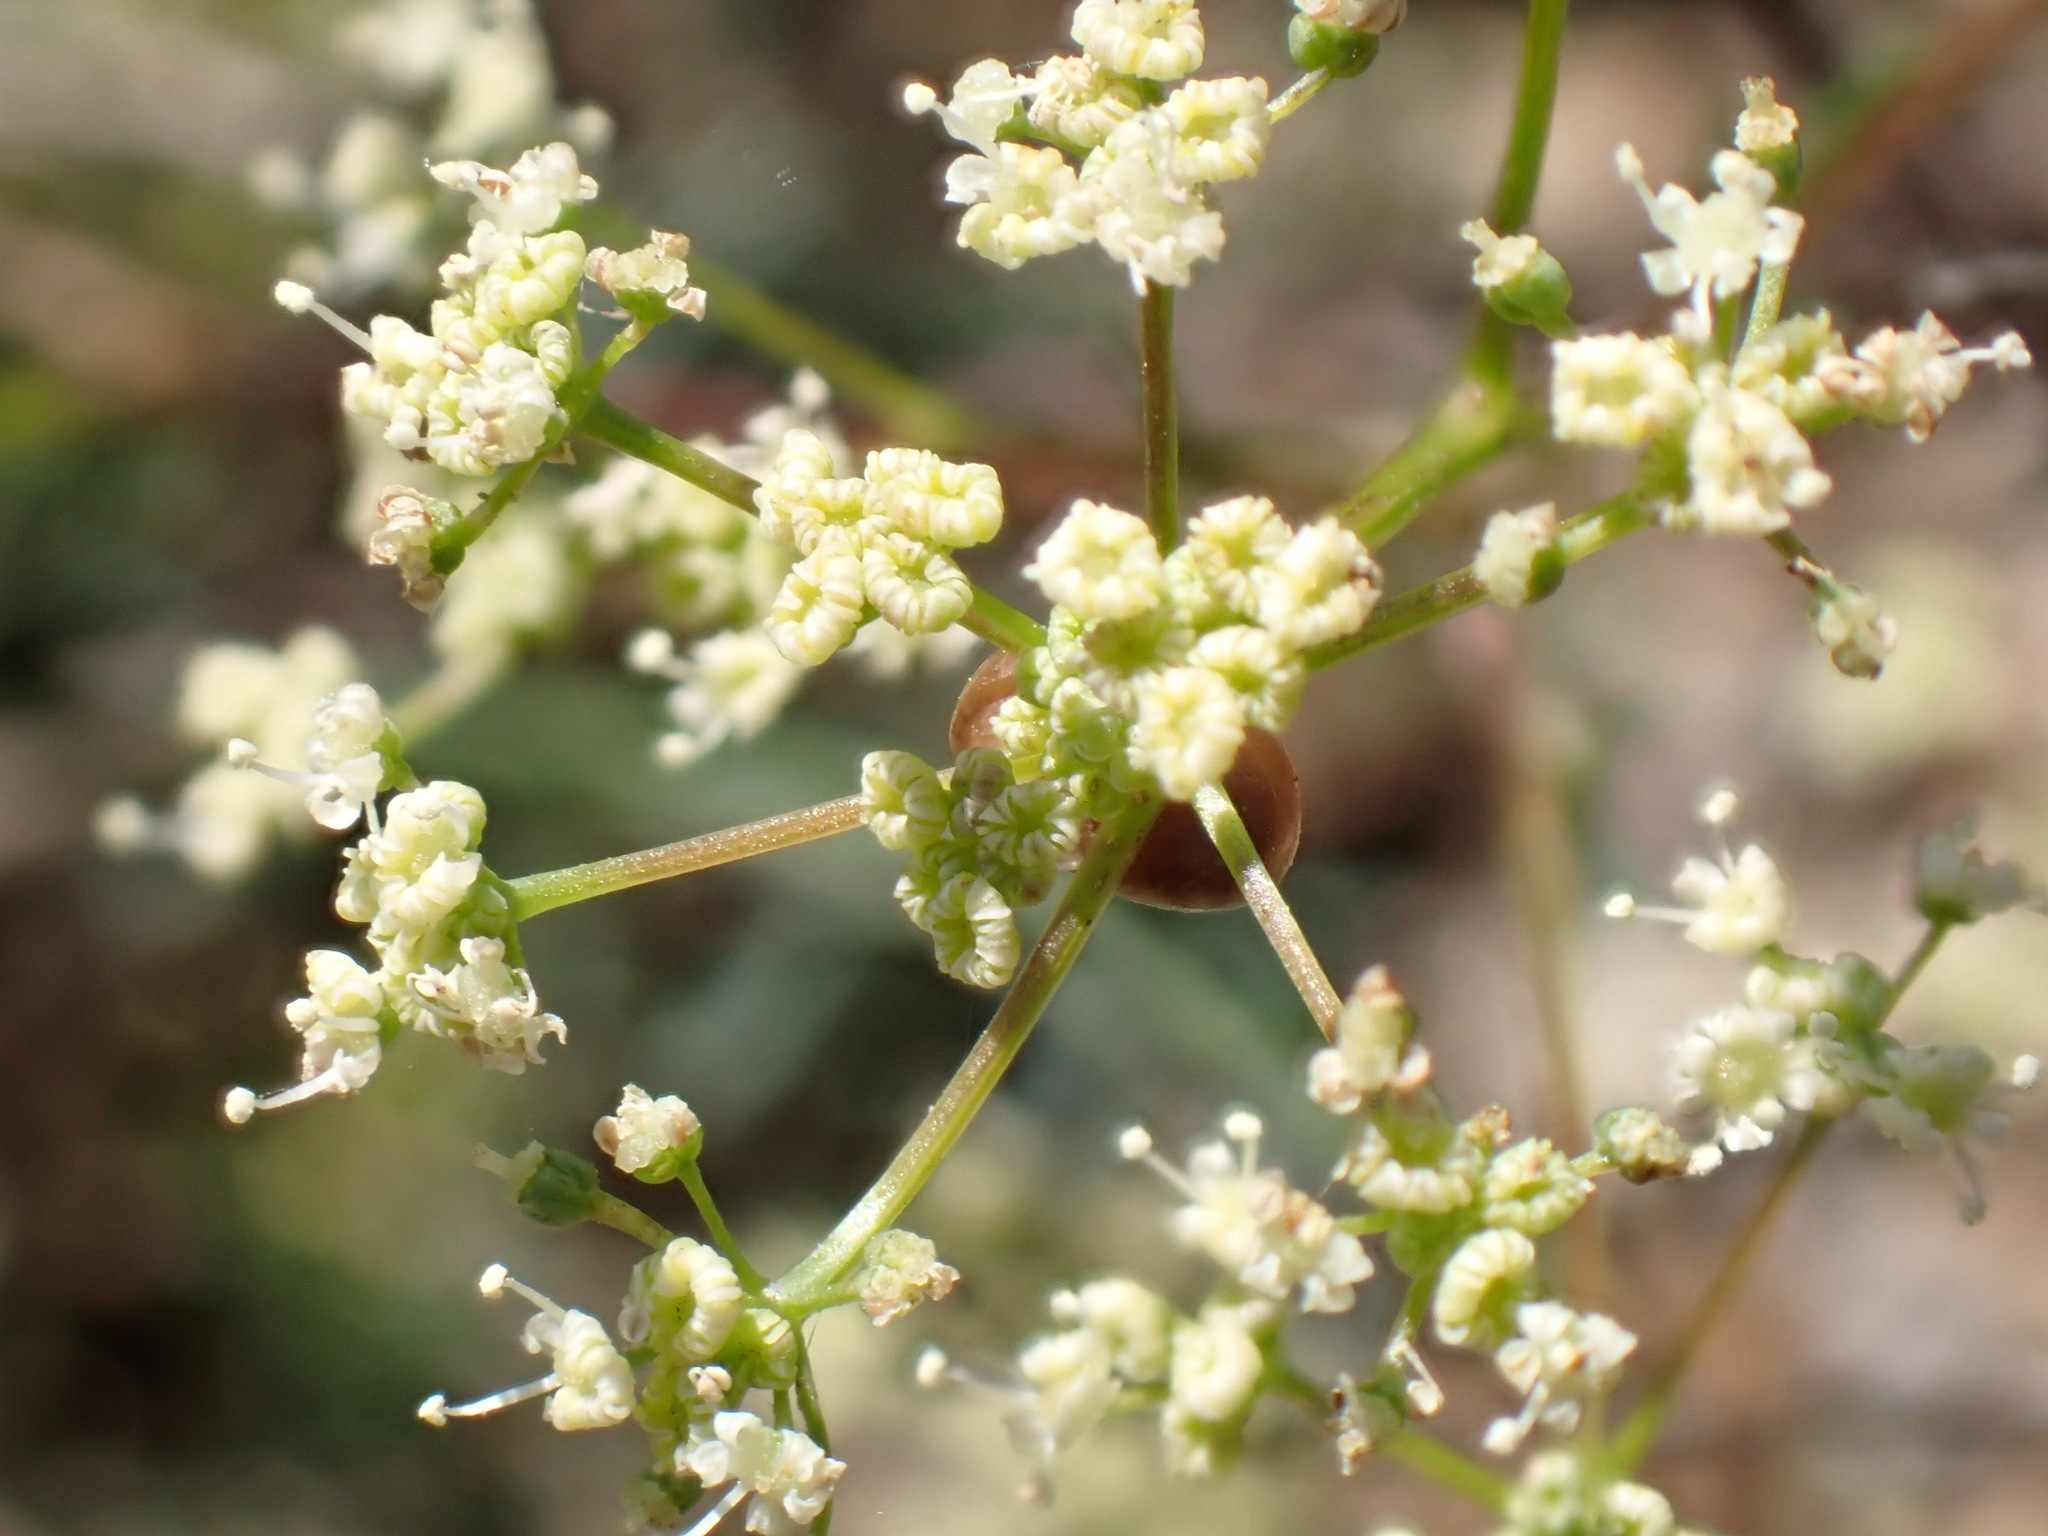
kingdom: Plantae
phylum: Tracheophyta
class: Magnoliopsida
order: Apiales
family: Apiaceae
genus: Trinia
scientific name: Trinia glauca
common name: Honewort
